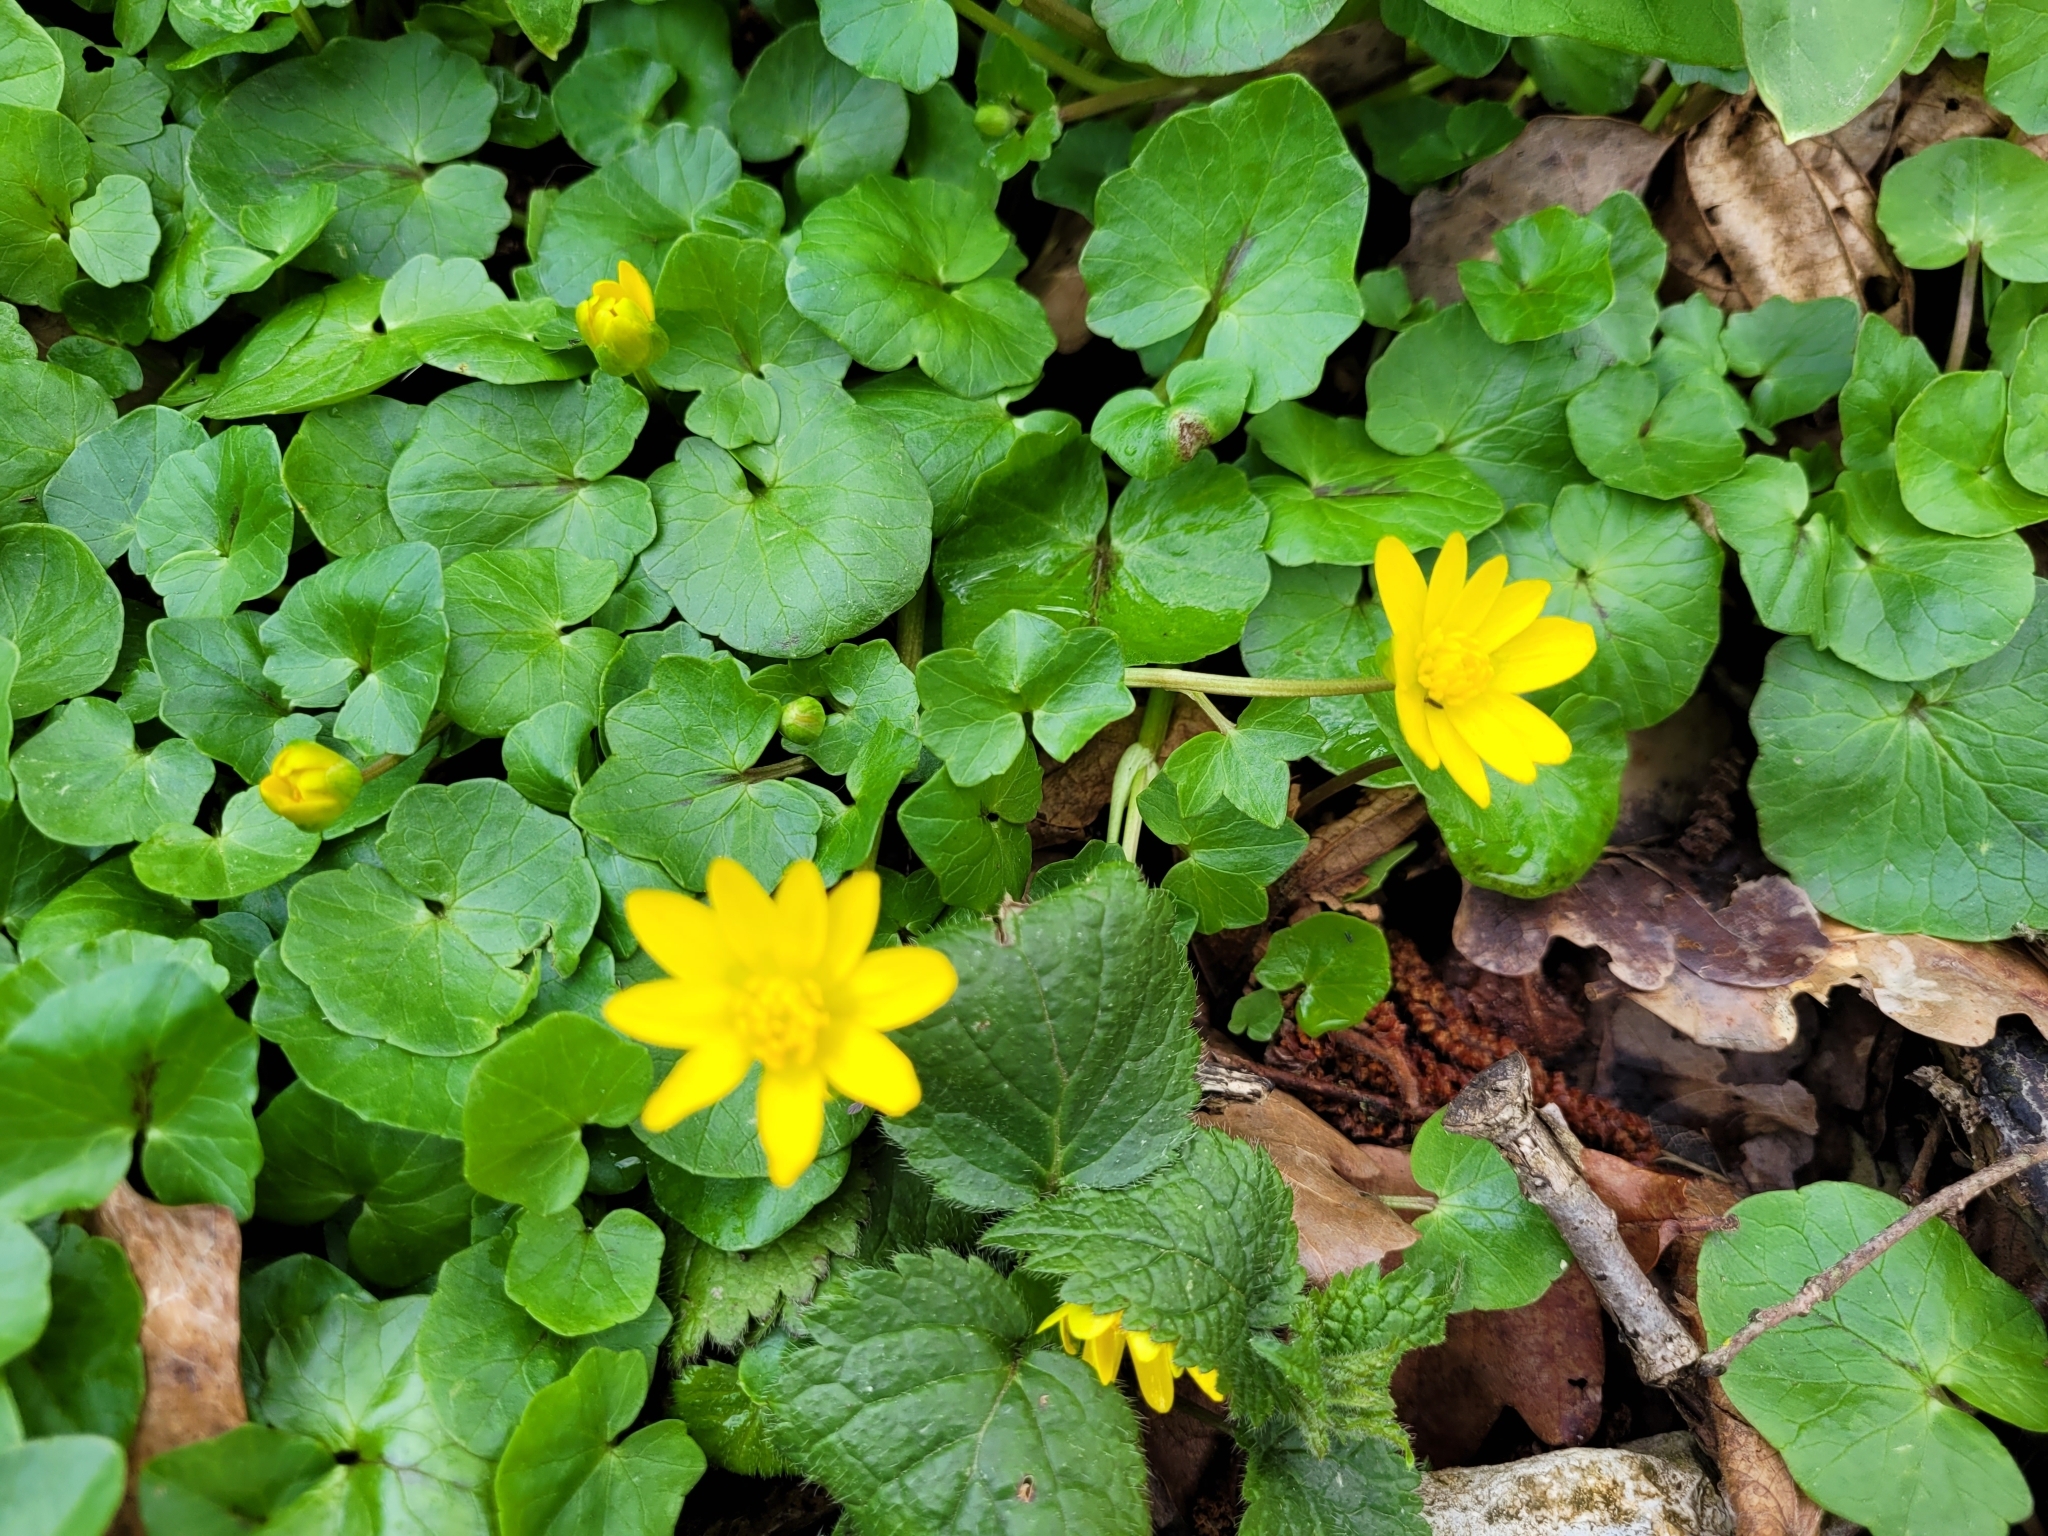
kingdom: Plantae
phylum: Tracheophyta
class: Magnoliopsida
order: Ranunculales
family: Ranunculaceae
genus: Ficaria
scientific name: Ficaria verna
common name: Lesser celandine
